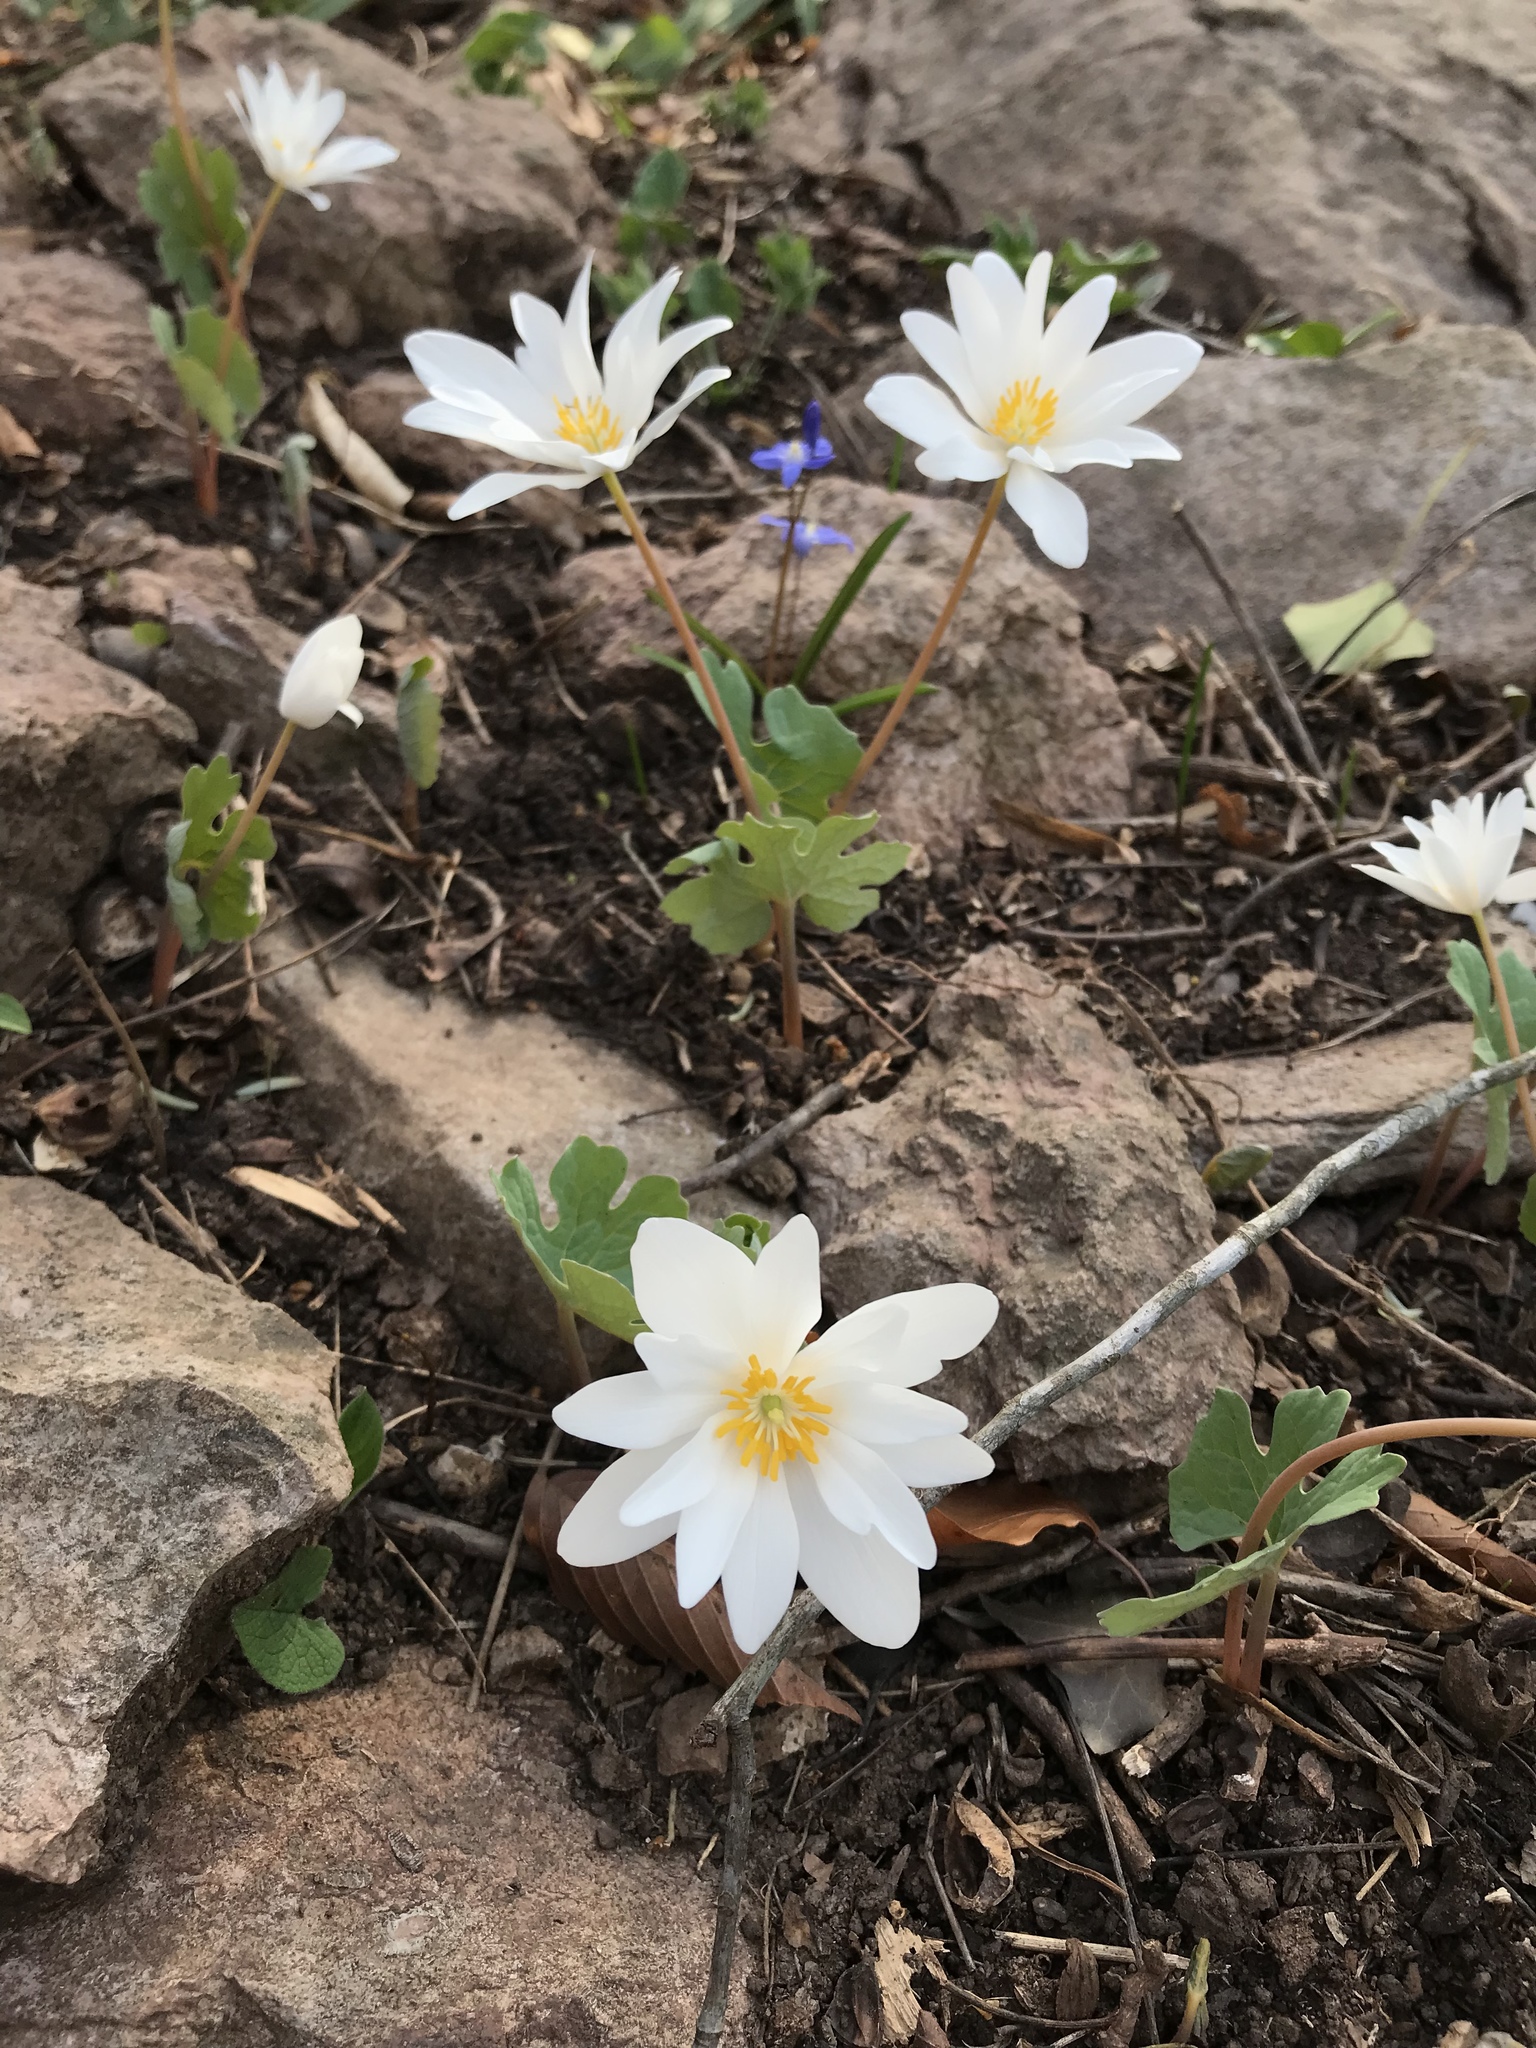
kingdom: Plantae
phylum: Tracheophyta
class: Magnoliopsida
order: Ranunculales
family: Papaveraceae
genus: Sanguinaria
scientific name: Sanguinaria canadensis
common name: Bloodroot
